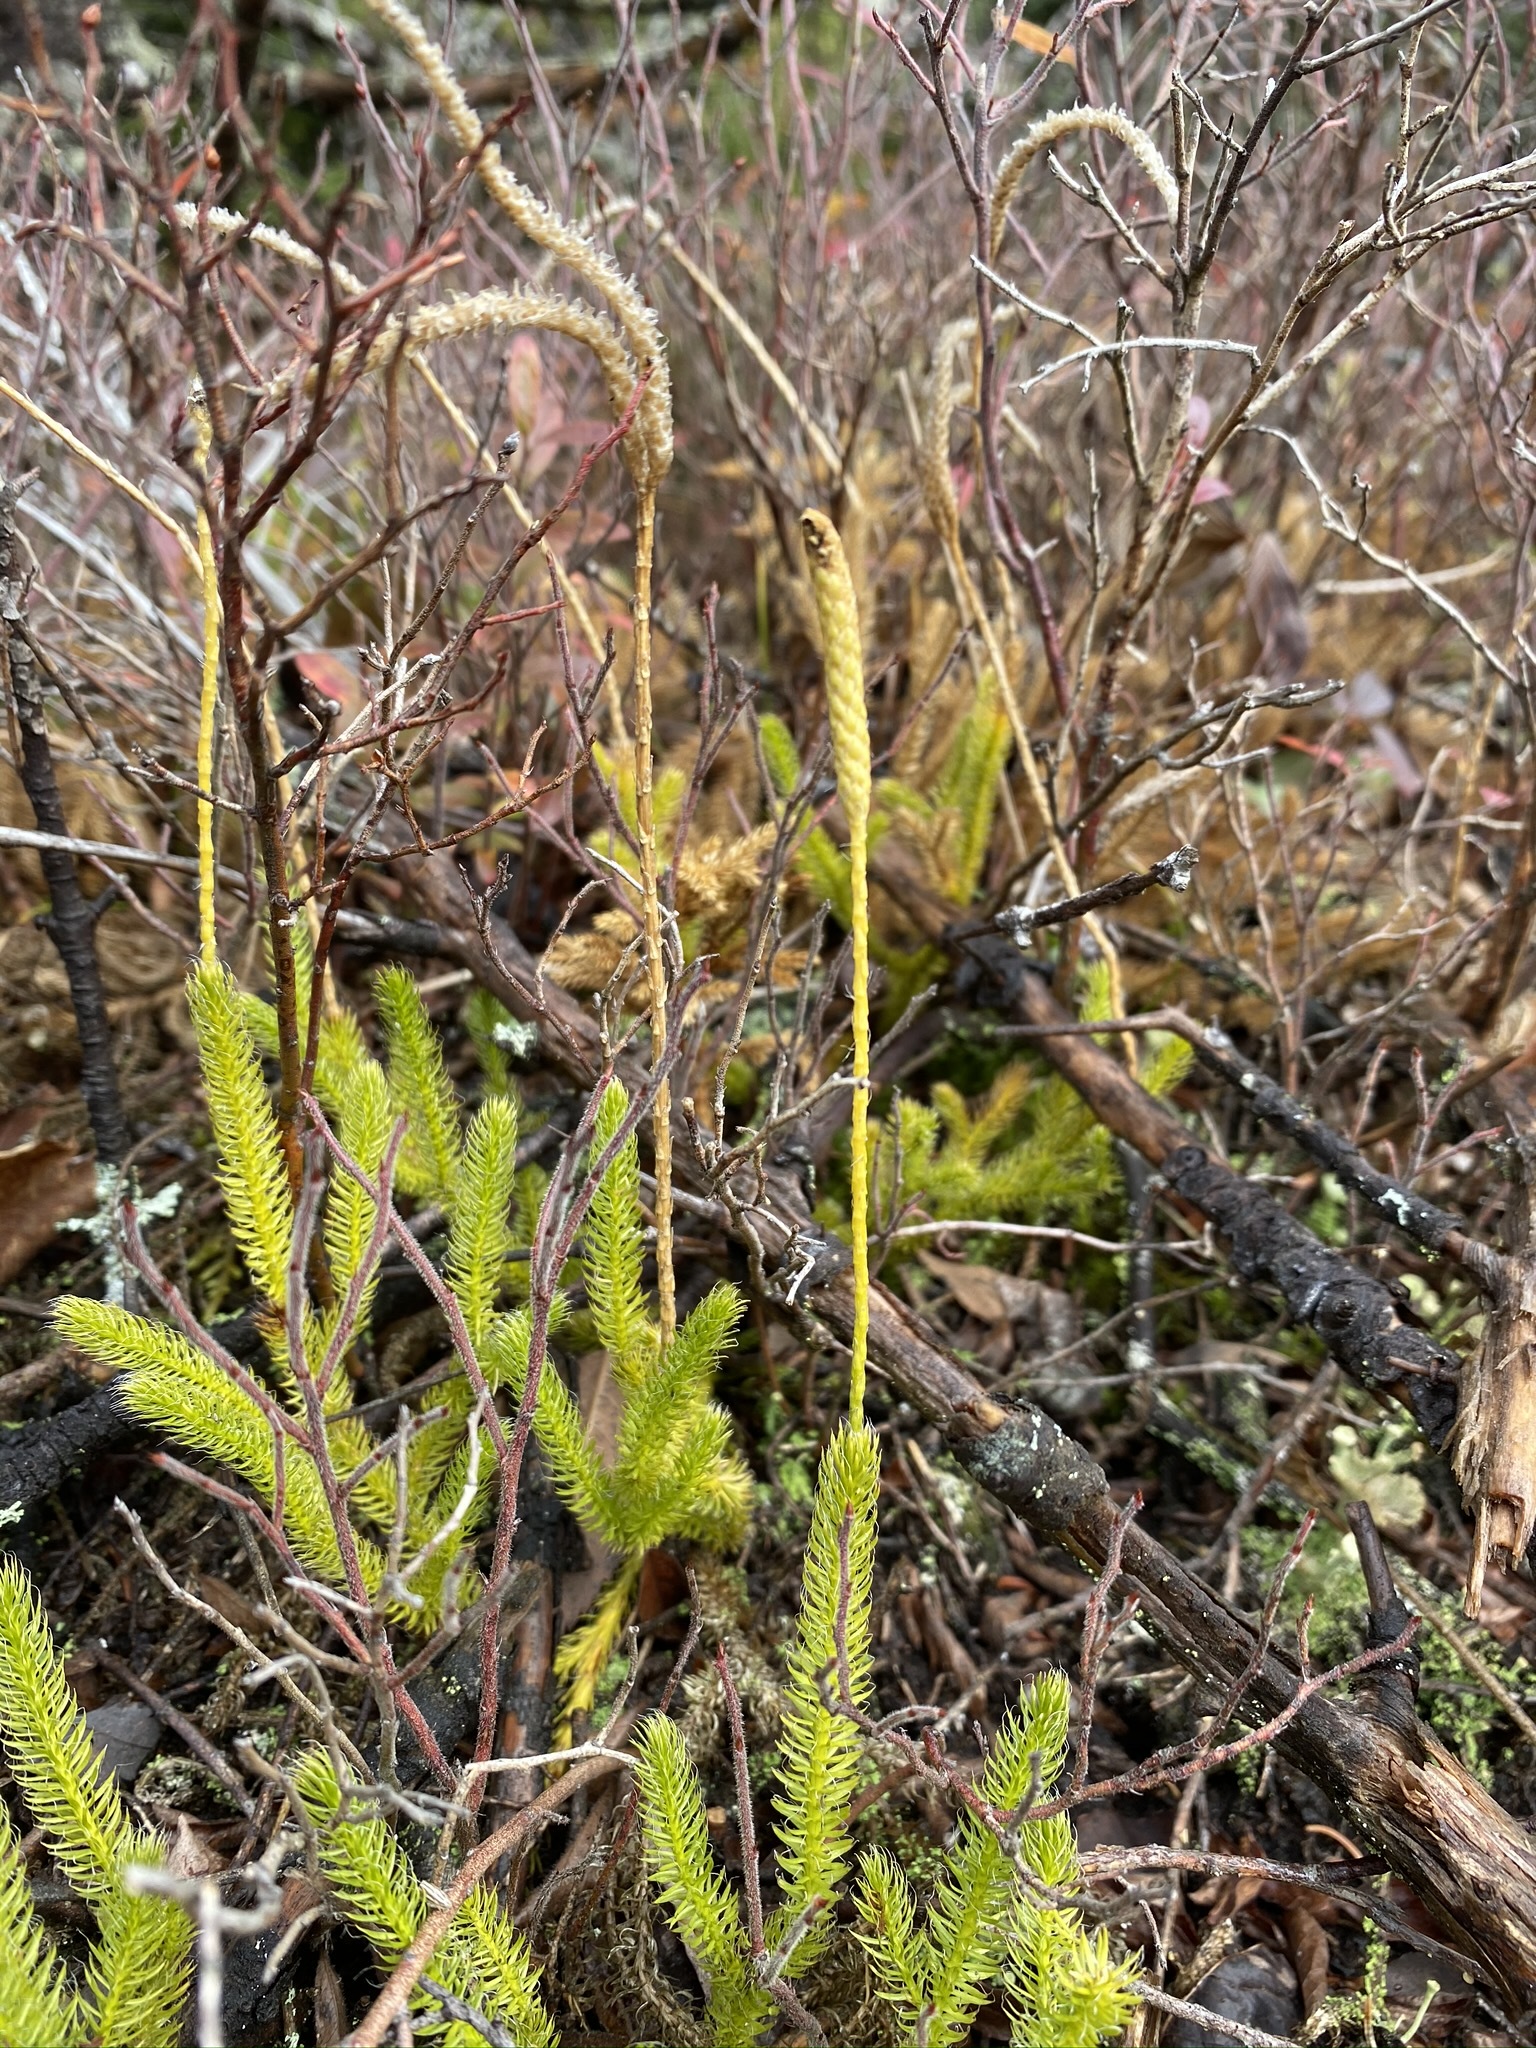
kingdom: Plantae
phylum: Tracheophyta
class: Lycopodiopsida
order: Lycopodiales
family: Lycopodiaceae
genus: Lycopodium
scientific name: Lycopodium lagopus
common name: One-cone clubmoss
